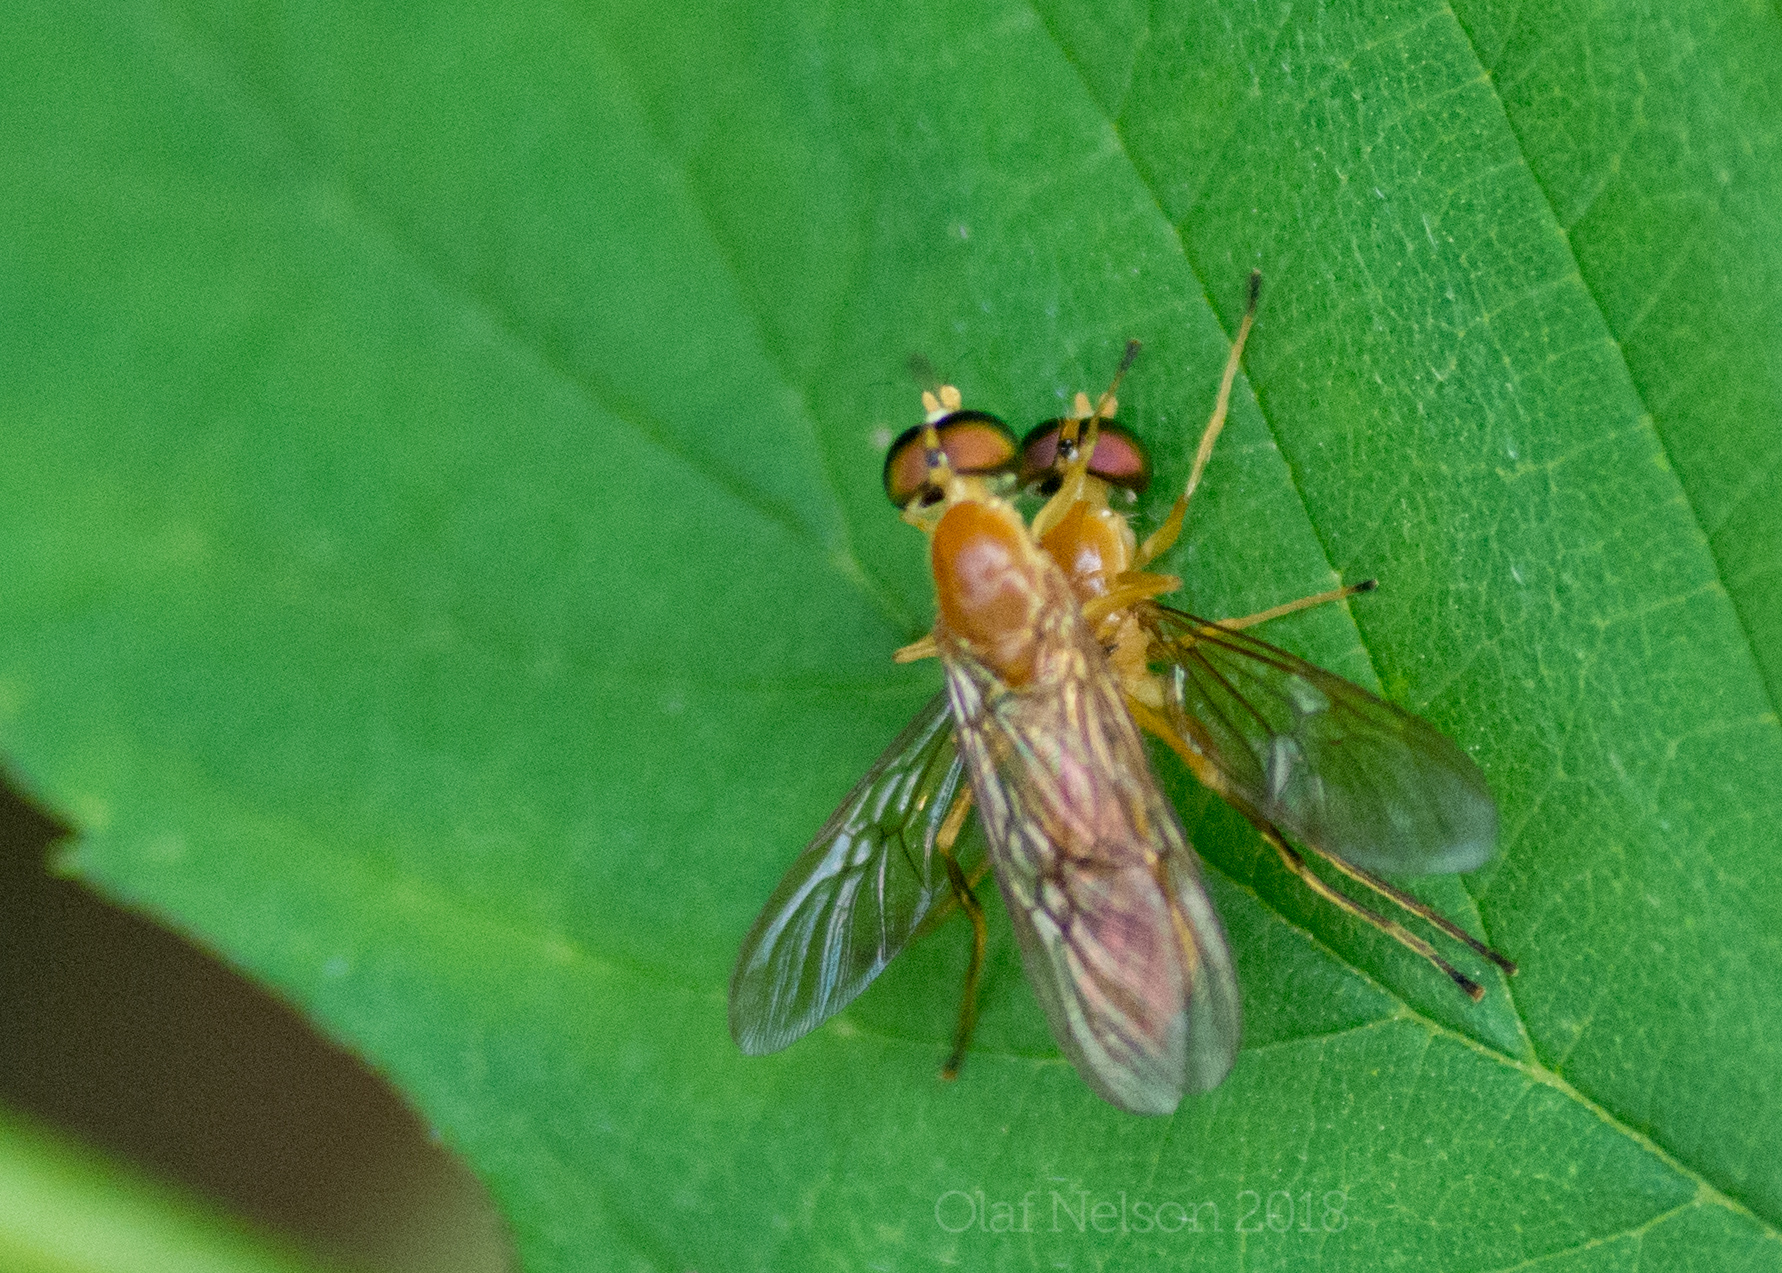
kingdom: Animalia
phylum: Arthropoda
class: Insecta
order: Diptera
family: Stratiomyidae
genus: Ptecticus
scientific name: Ptecticus trivittatus
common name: Compost fly
